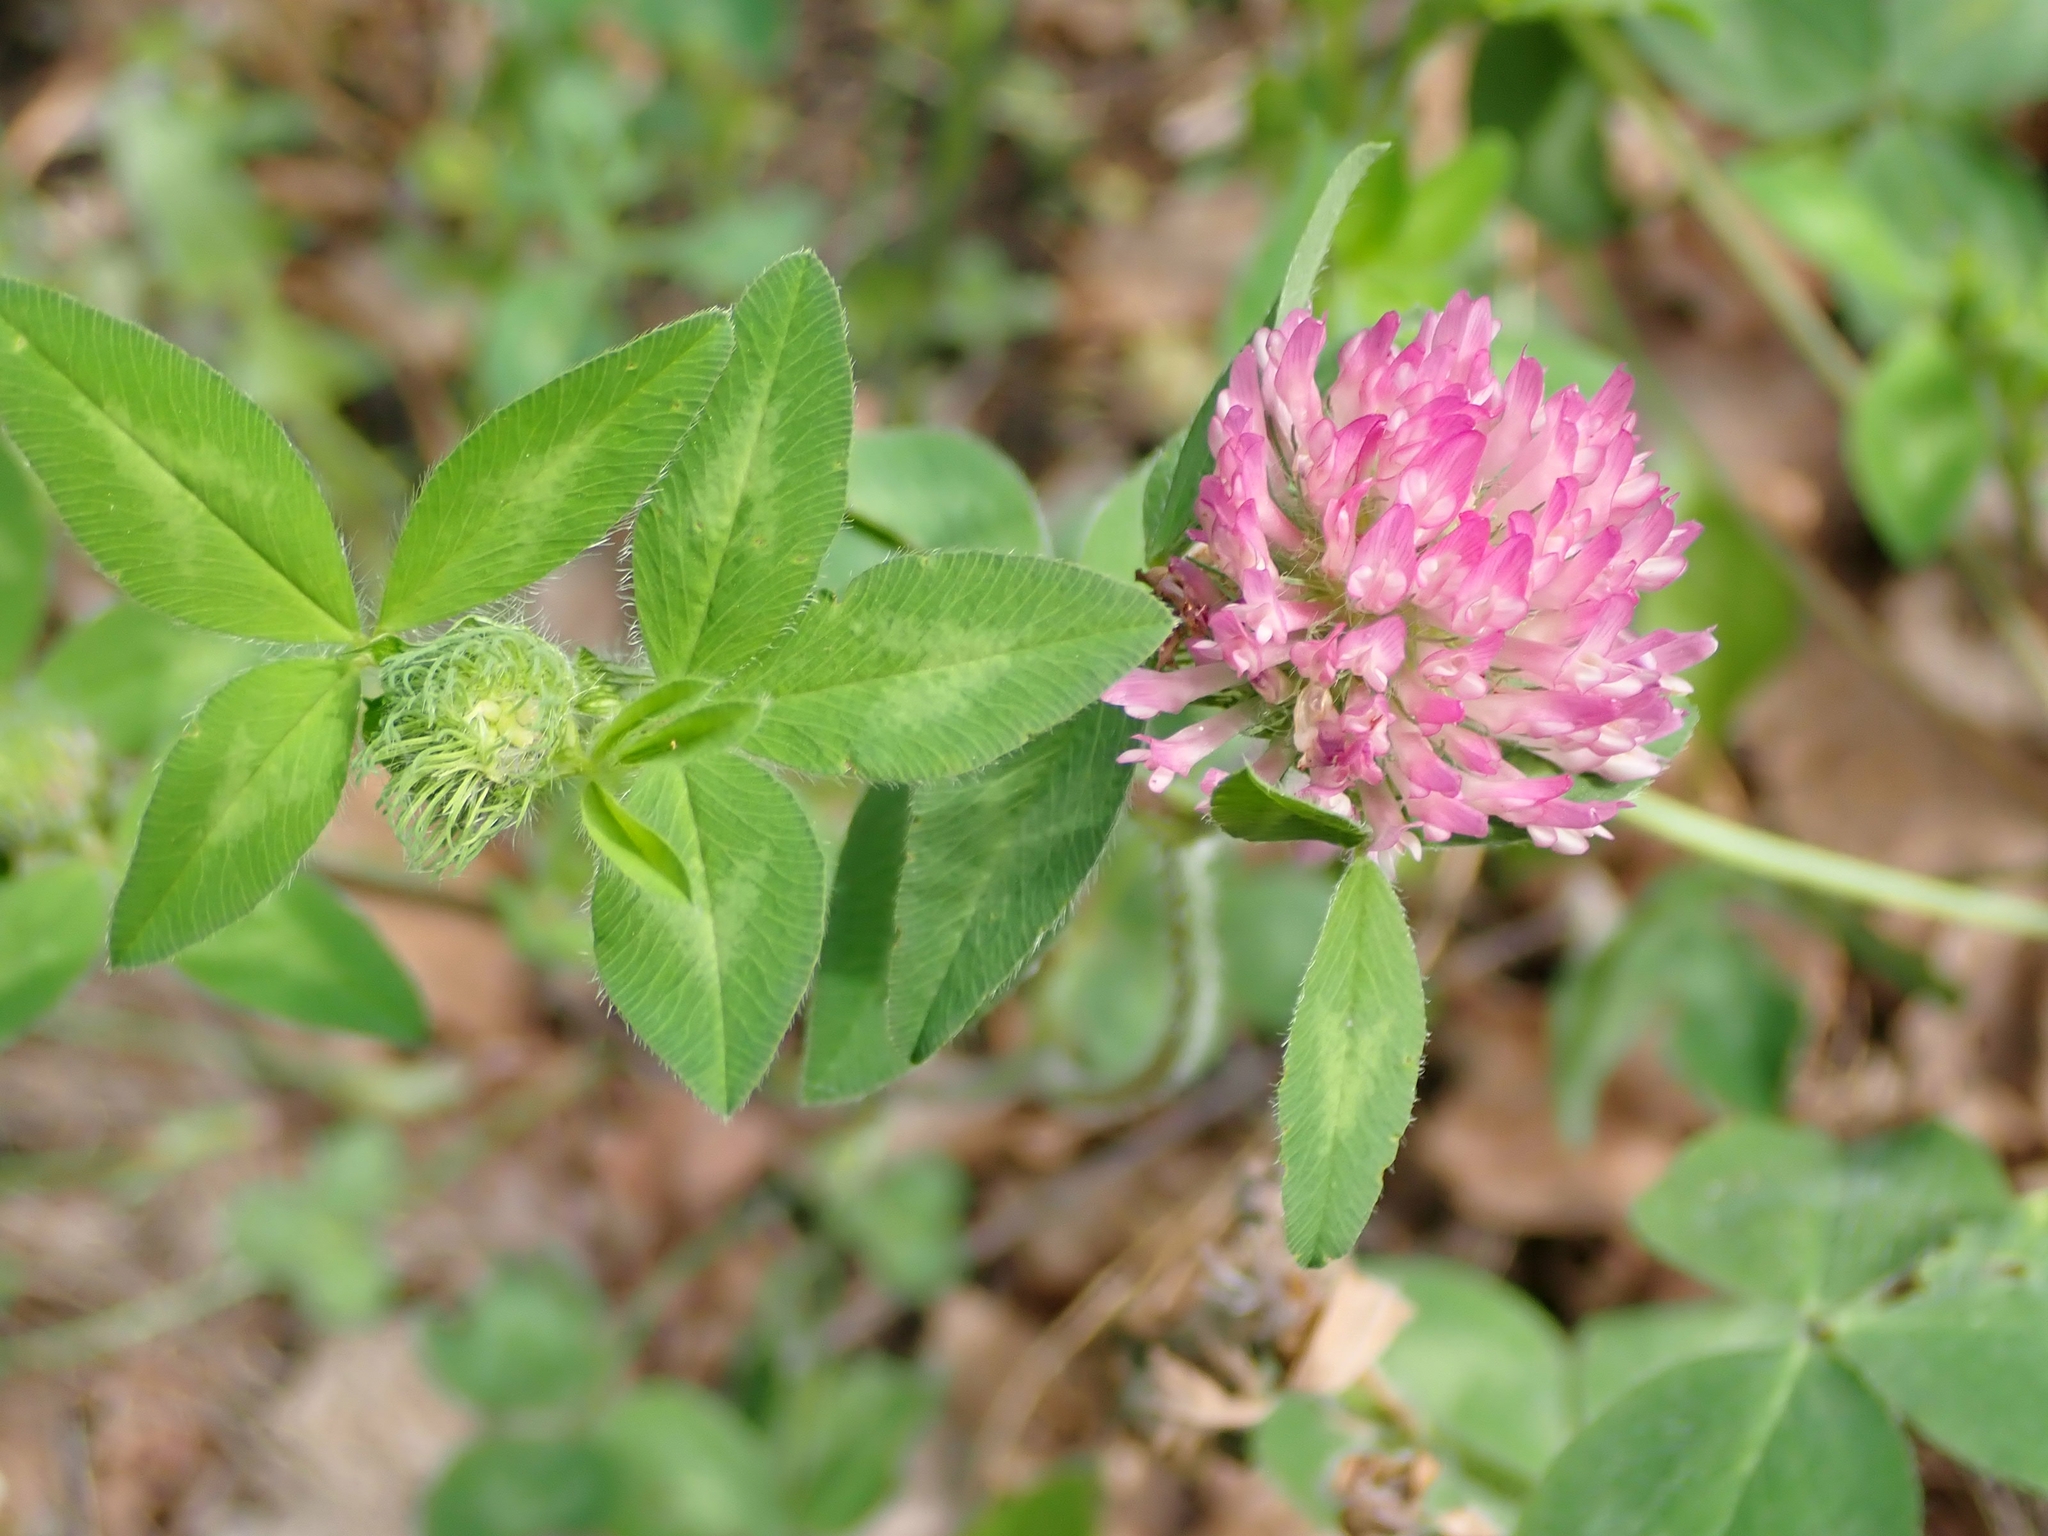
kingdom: Plantae
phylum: Tracheophyta
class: Magnoliopsida
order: Fabales
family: Fabaceae
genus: Trifolium
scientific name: Trifolium pratense
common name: Red clover
